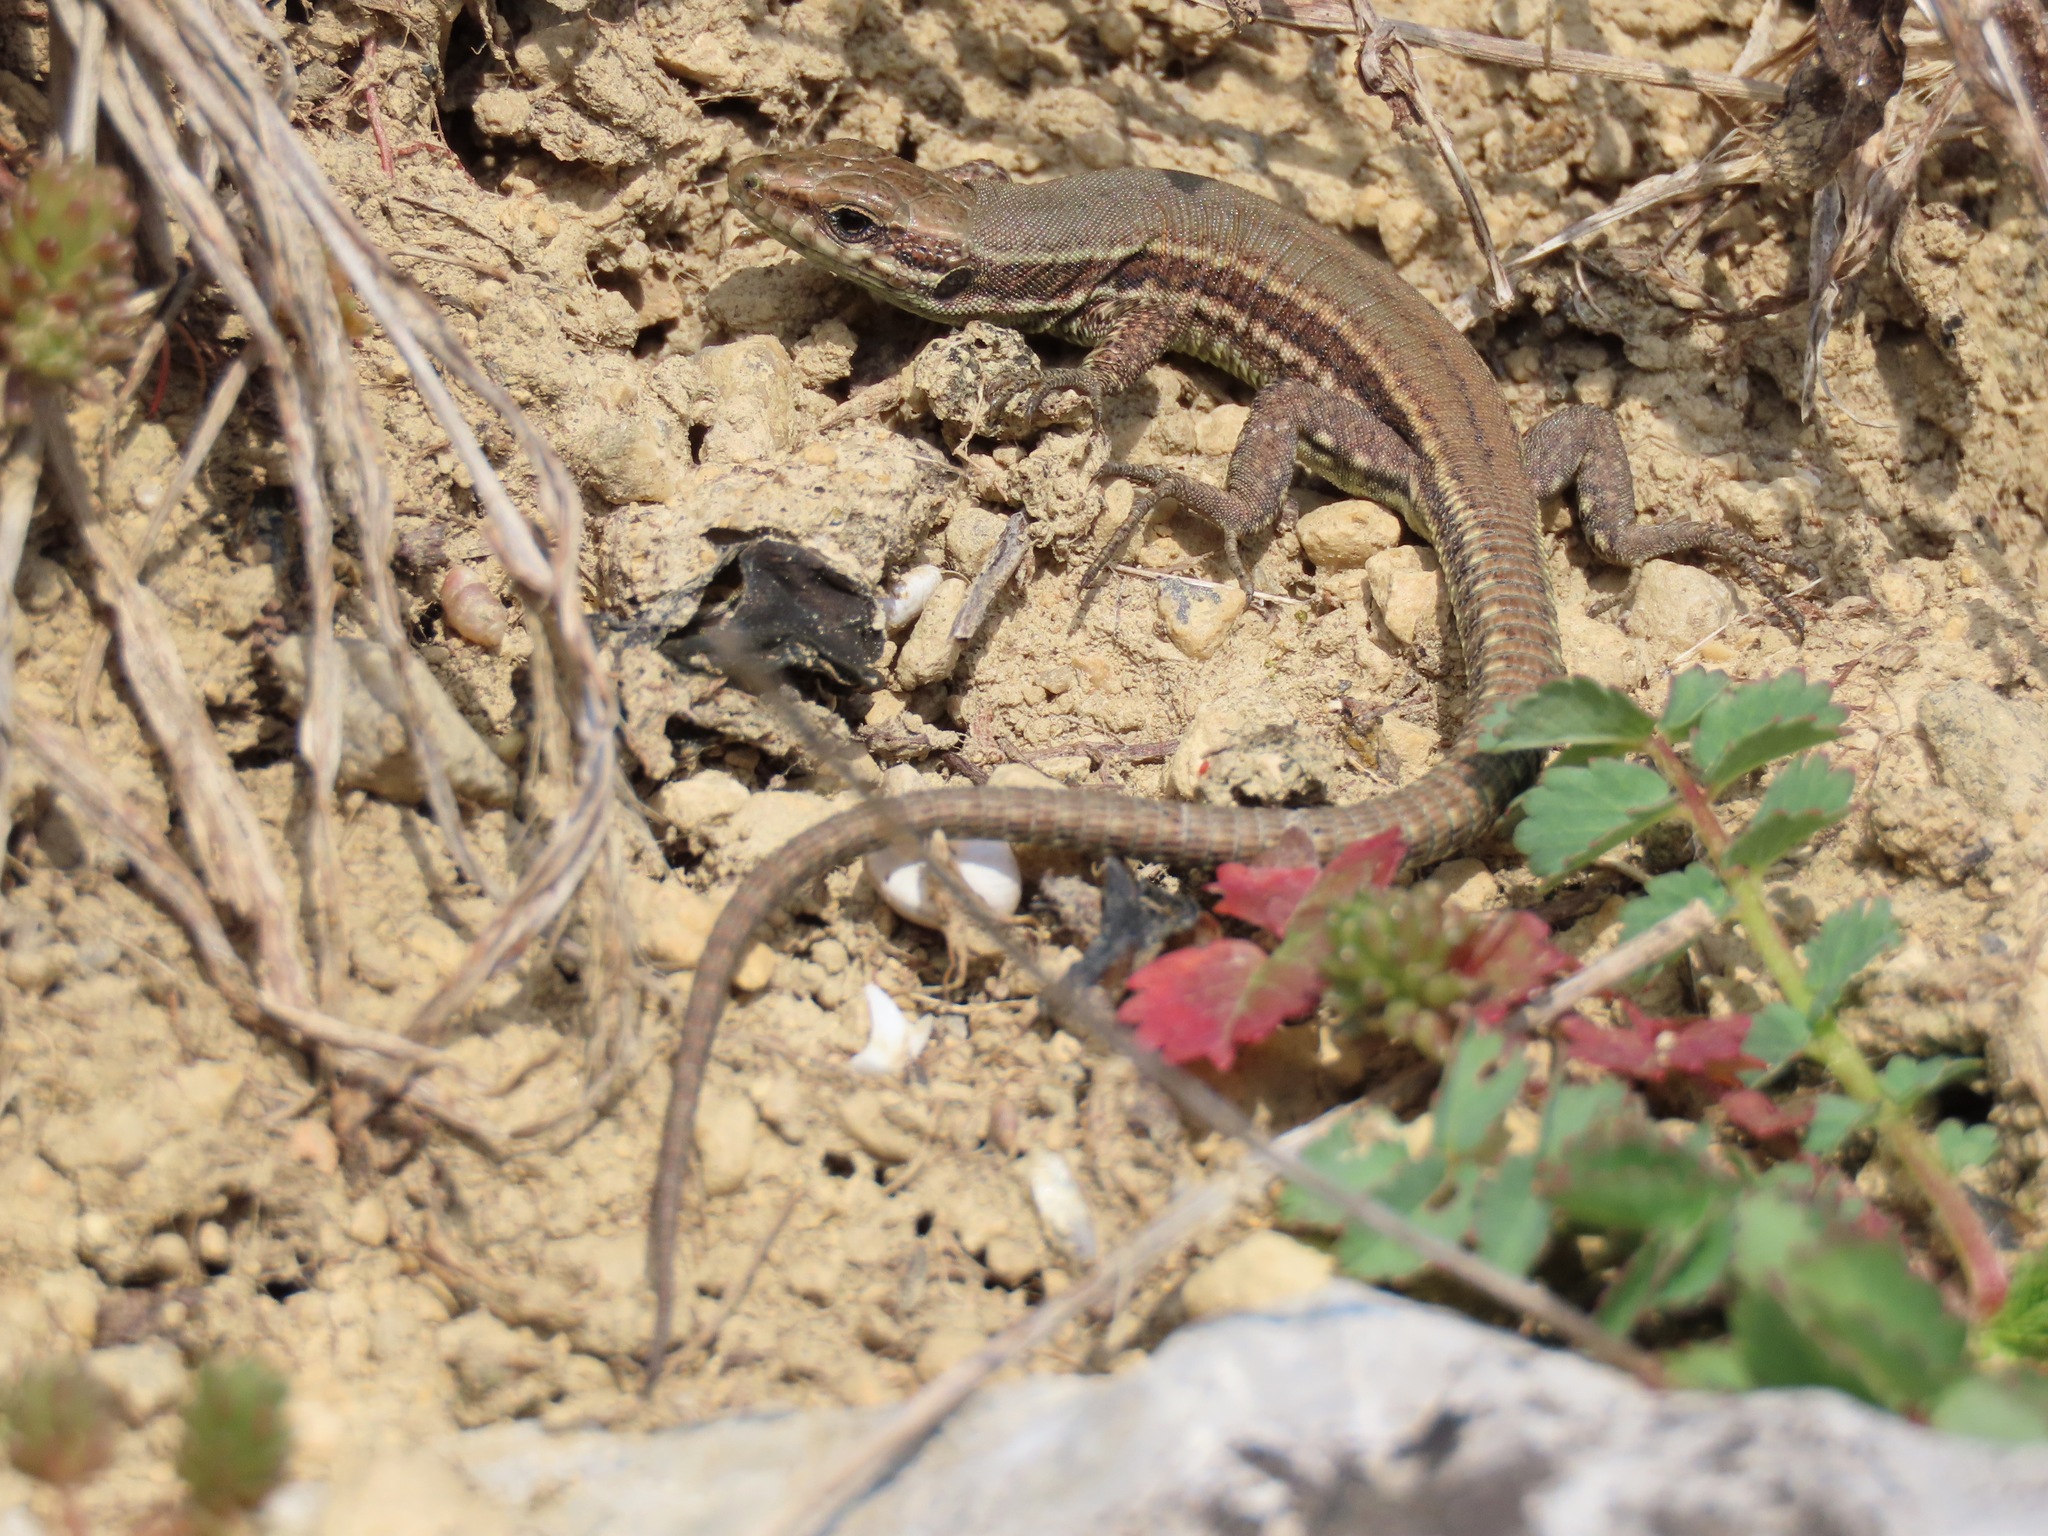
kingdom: Animalia
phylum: Chordata
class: Squamata
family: Lacertidae
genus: Podarcis
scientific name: Podarcis muralis
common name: Common wall lizard
